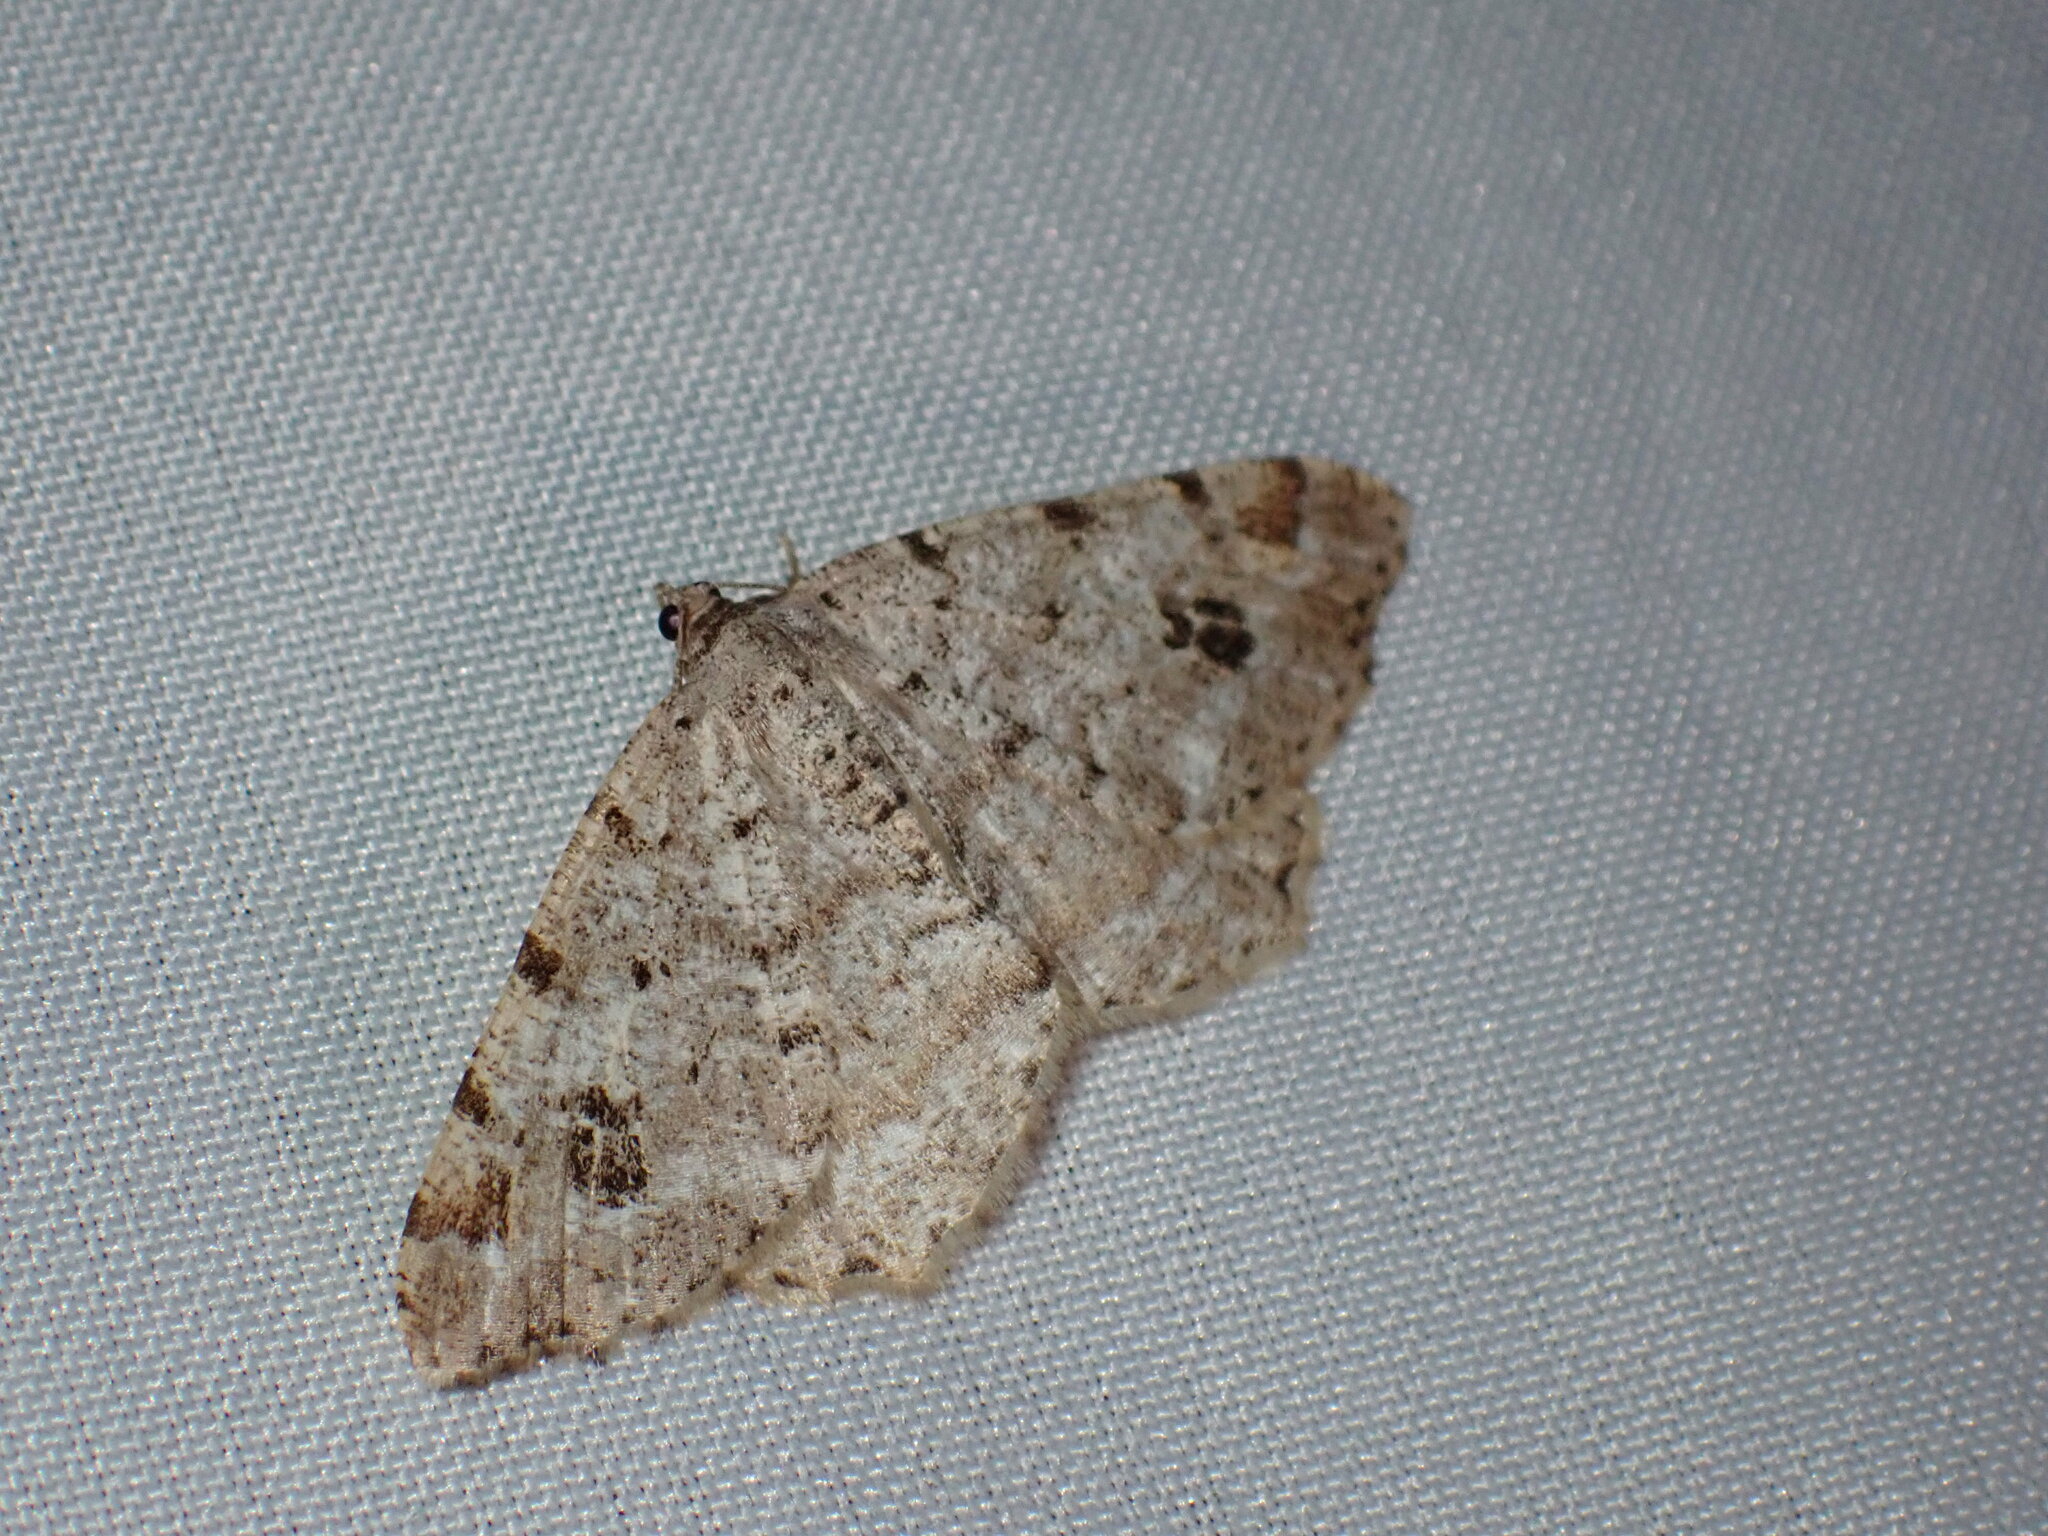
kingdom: Animalia
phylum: Arthropoda
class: Insecta
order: Lepidoptera
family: Geometridae
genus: Macaria
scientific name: Macaria signaria
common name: Dusky peacock
